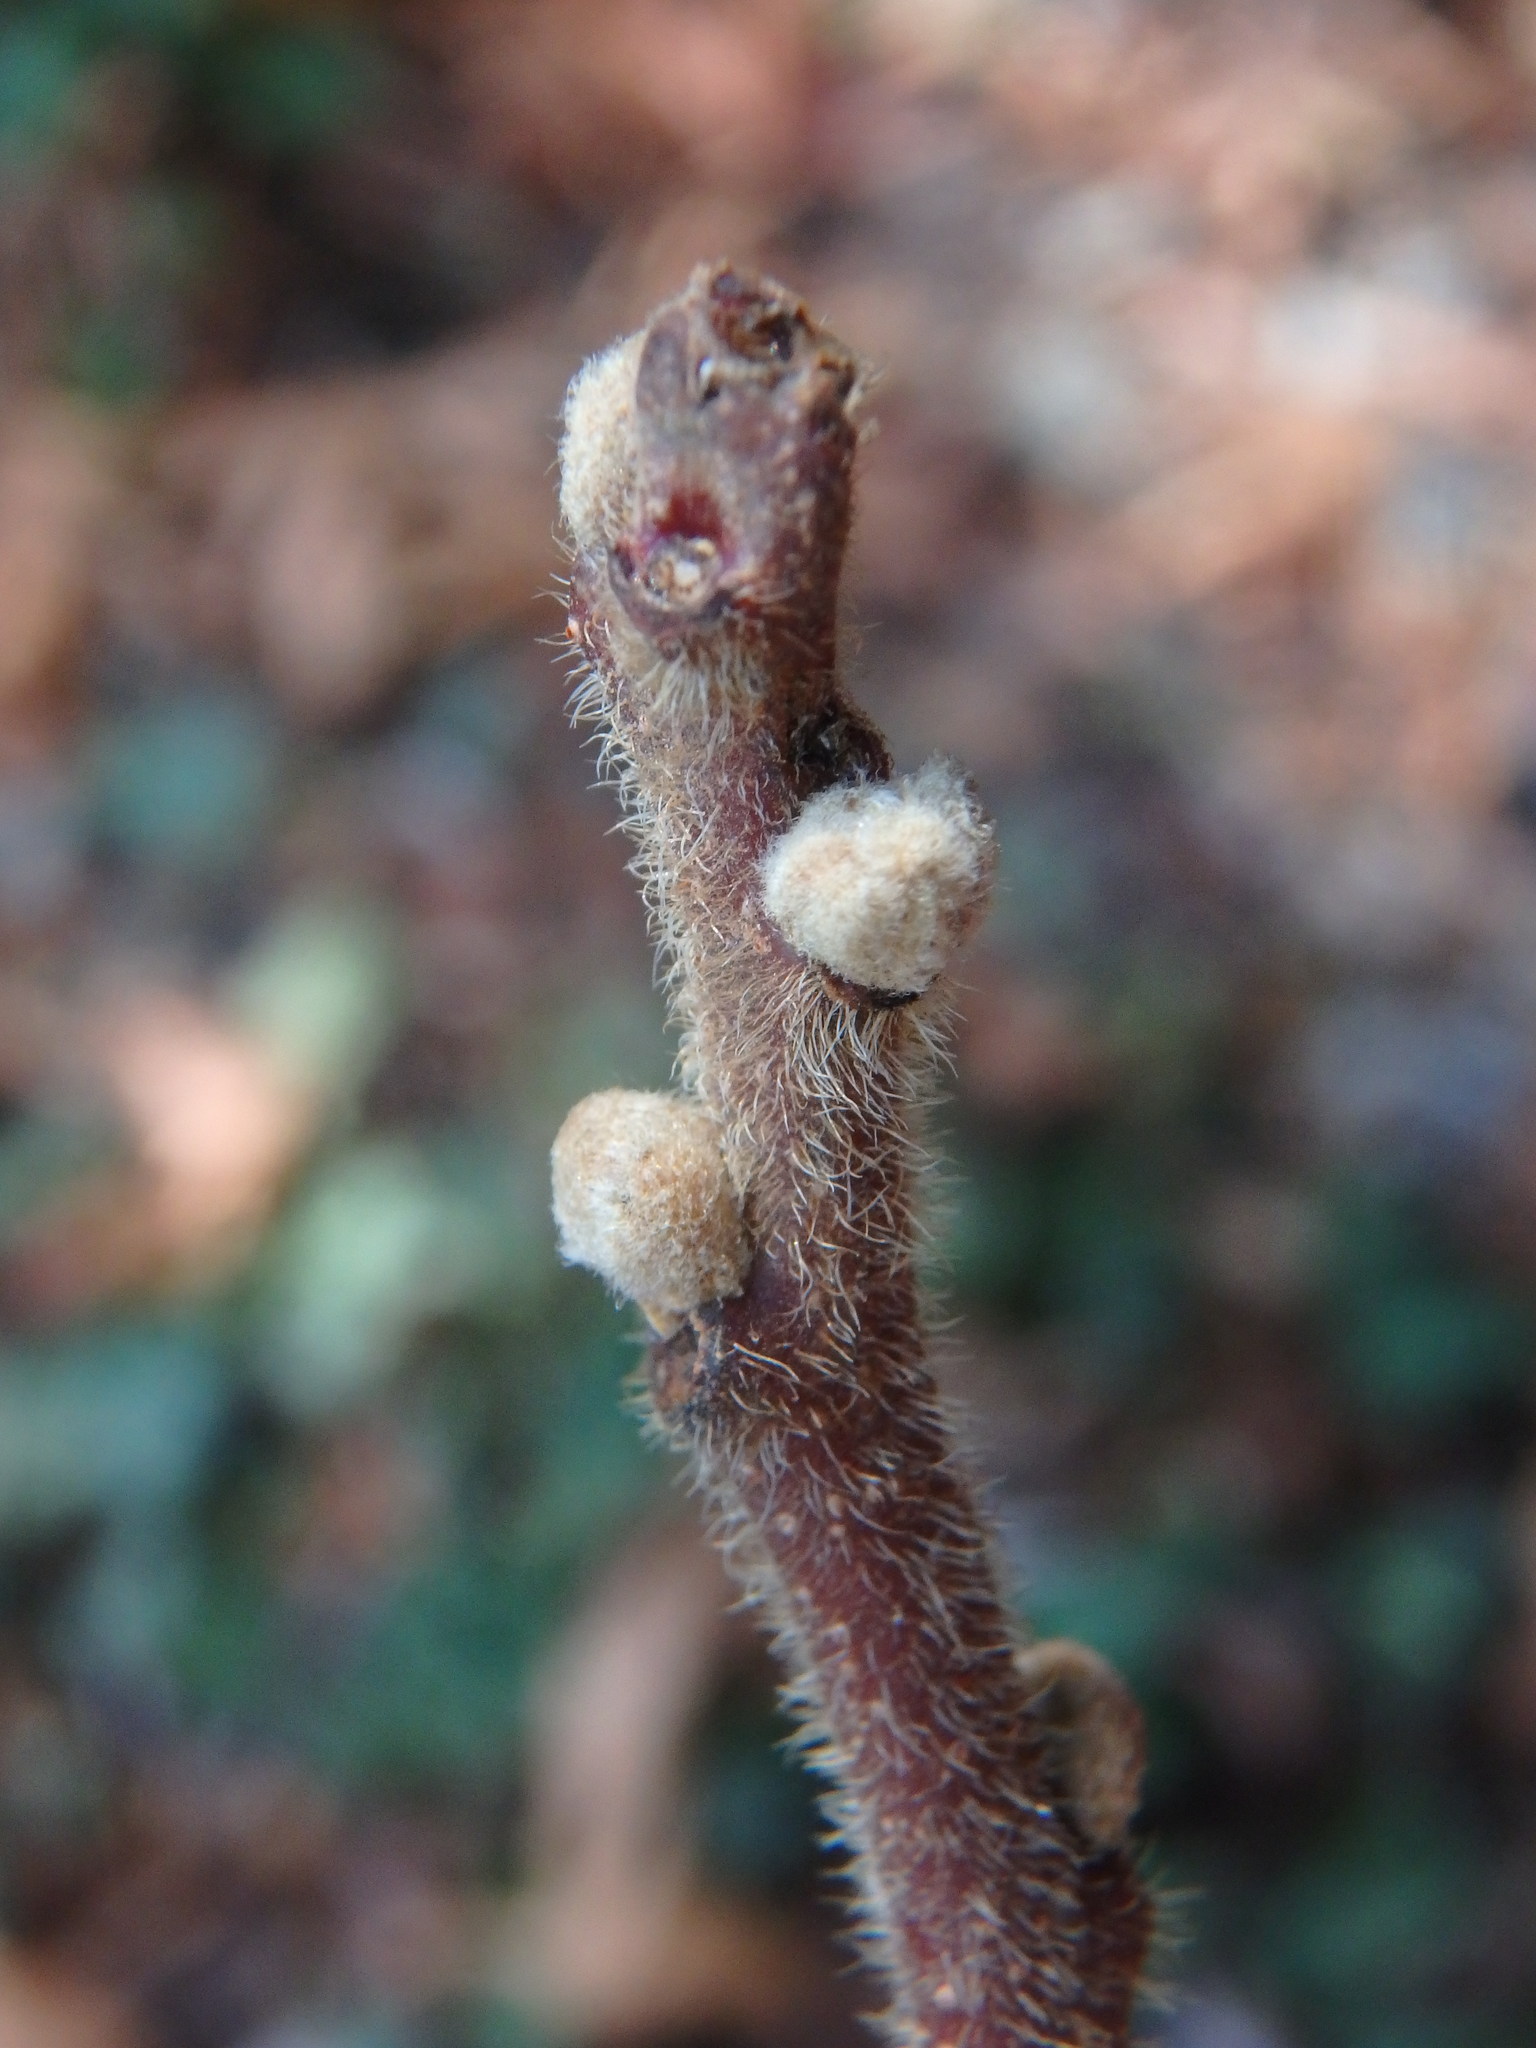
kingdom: Plantae
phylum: Tracheophyta
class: Magnoliopsida
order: Sapindales
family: Anacardiaceae
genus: Rhus
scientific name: Rhus coriaria
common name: Tanner's sumach
